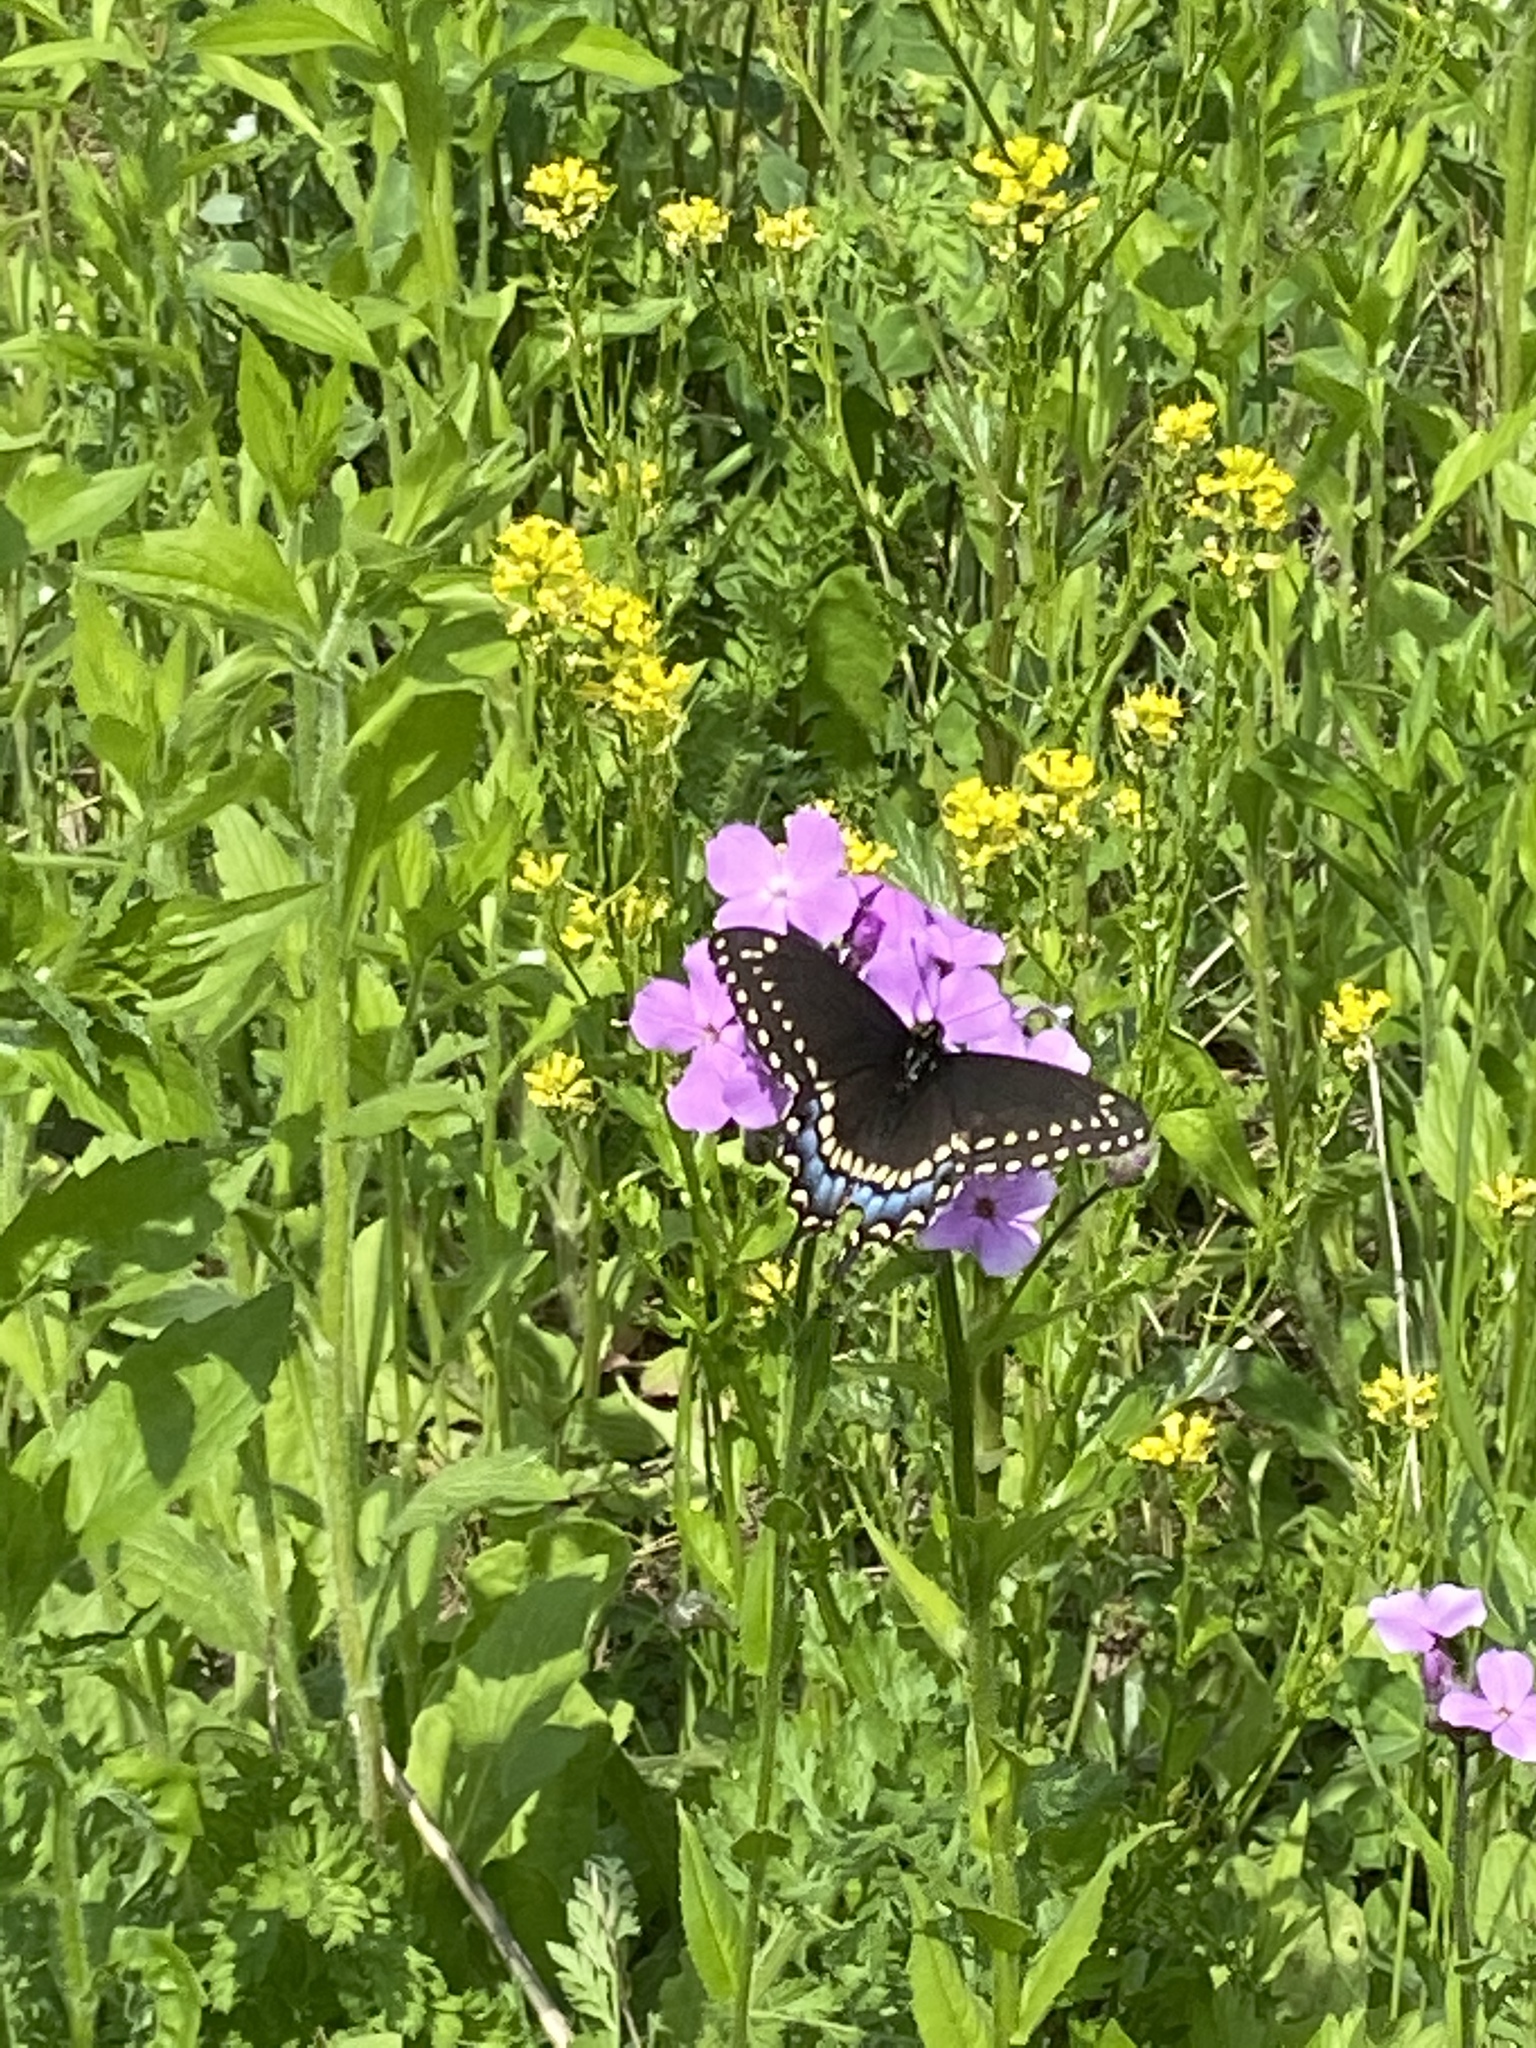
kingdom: Animalia
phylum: Arthropoda
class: Insecta
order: Lepidoptera
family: Papilionidae
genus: Papilio
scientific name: Papilio polyxenes
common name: Black swallowtail
